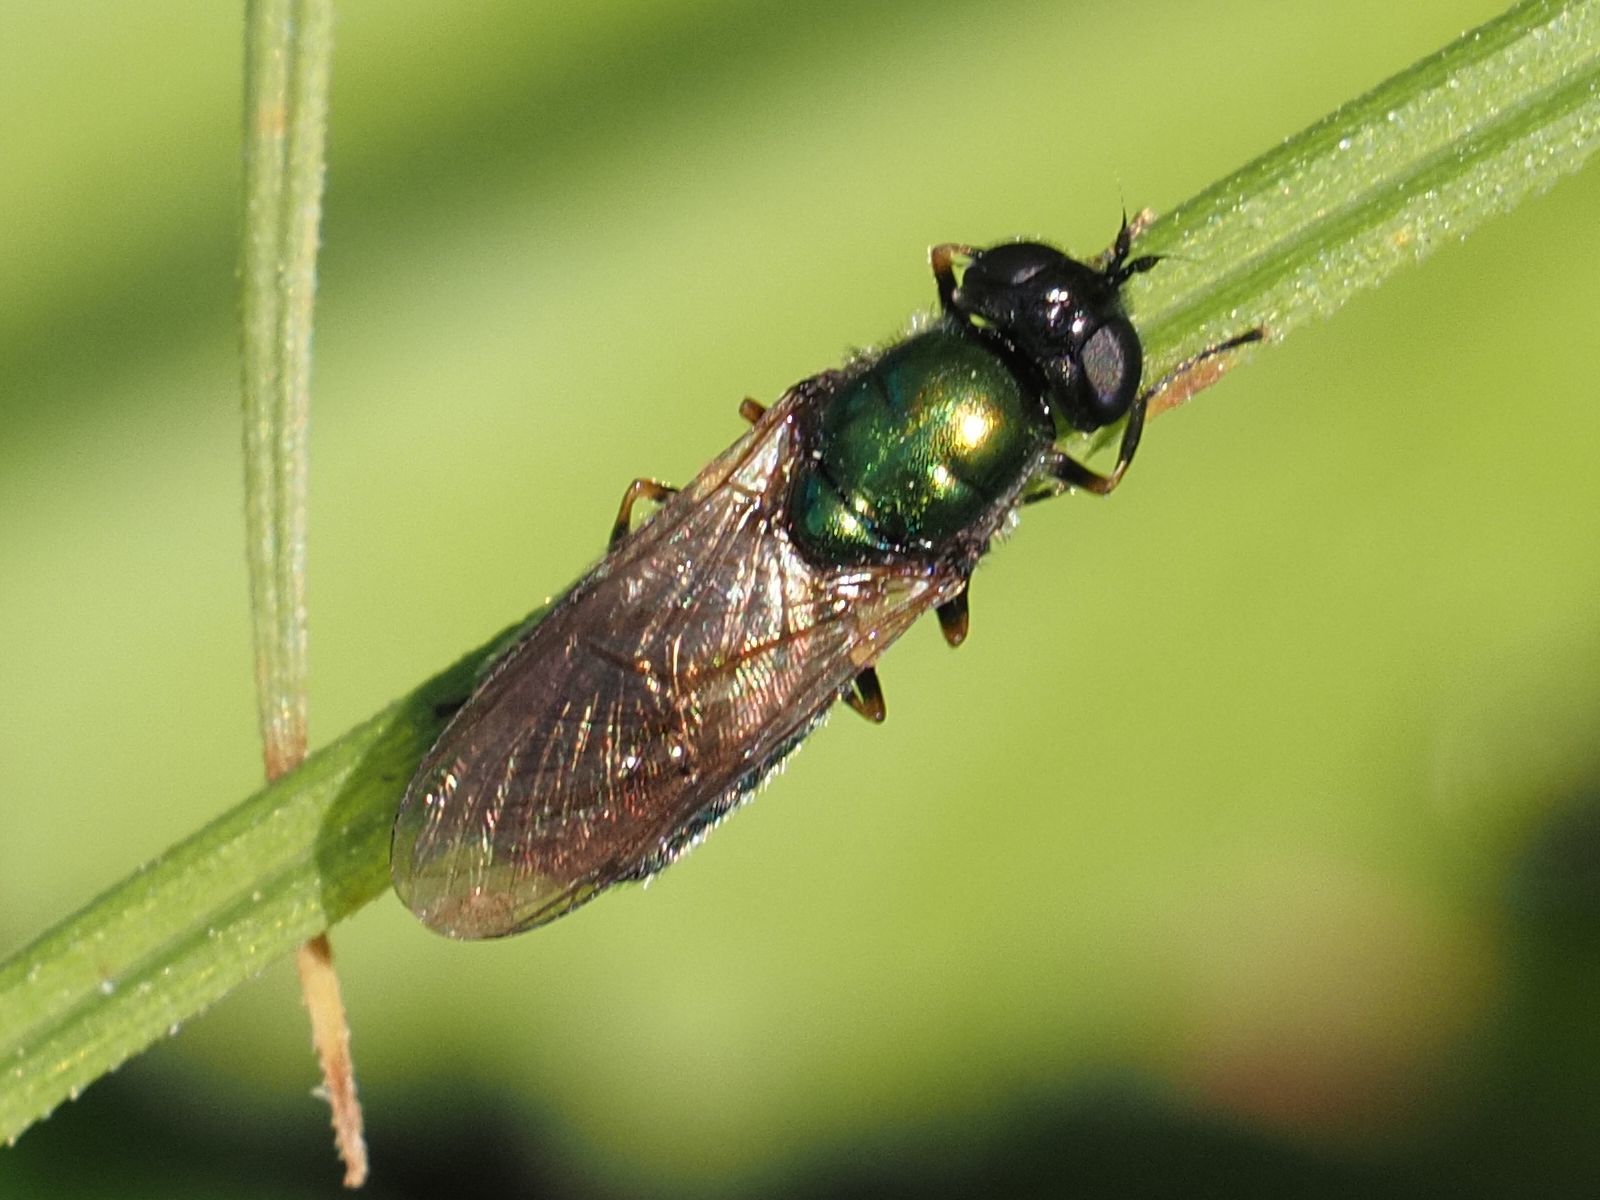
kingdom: Animalia
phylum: Arthropoda
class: Insecta
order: Diptera
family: Stratiomyidae
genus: Chloromyia
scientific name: Chloromyia formosa
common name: Soldier fly
